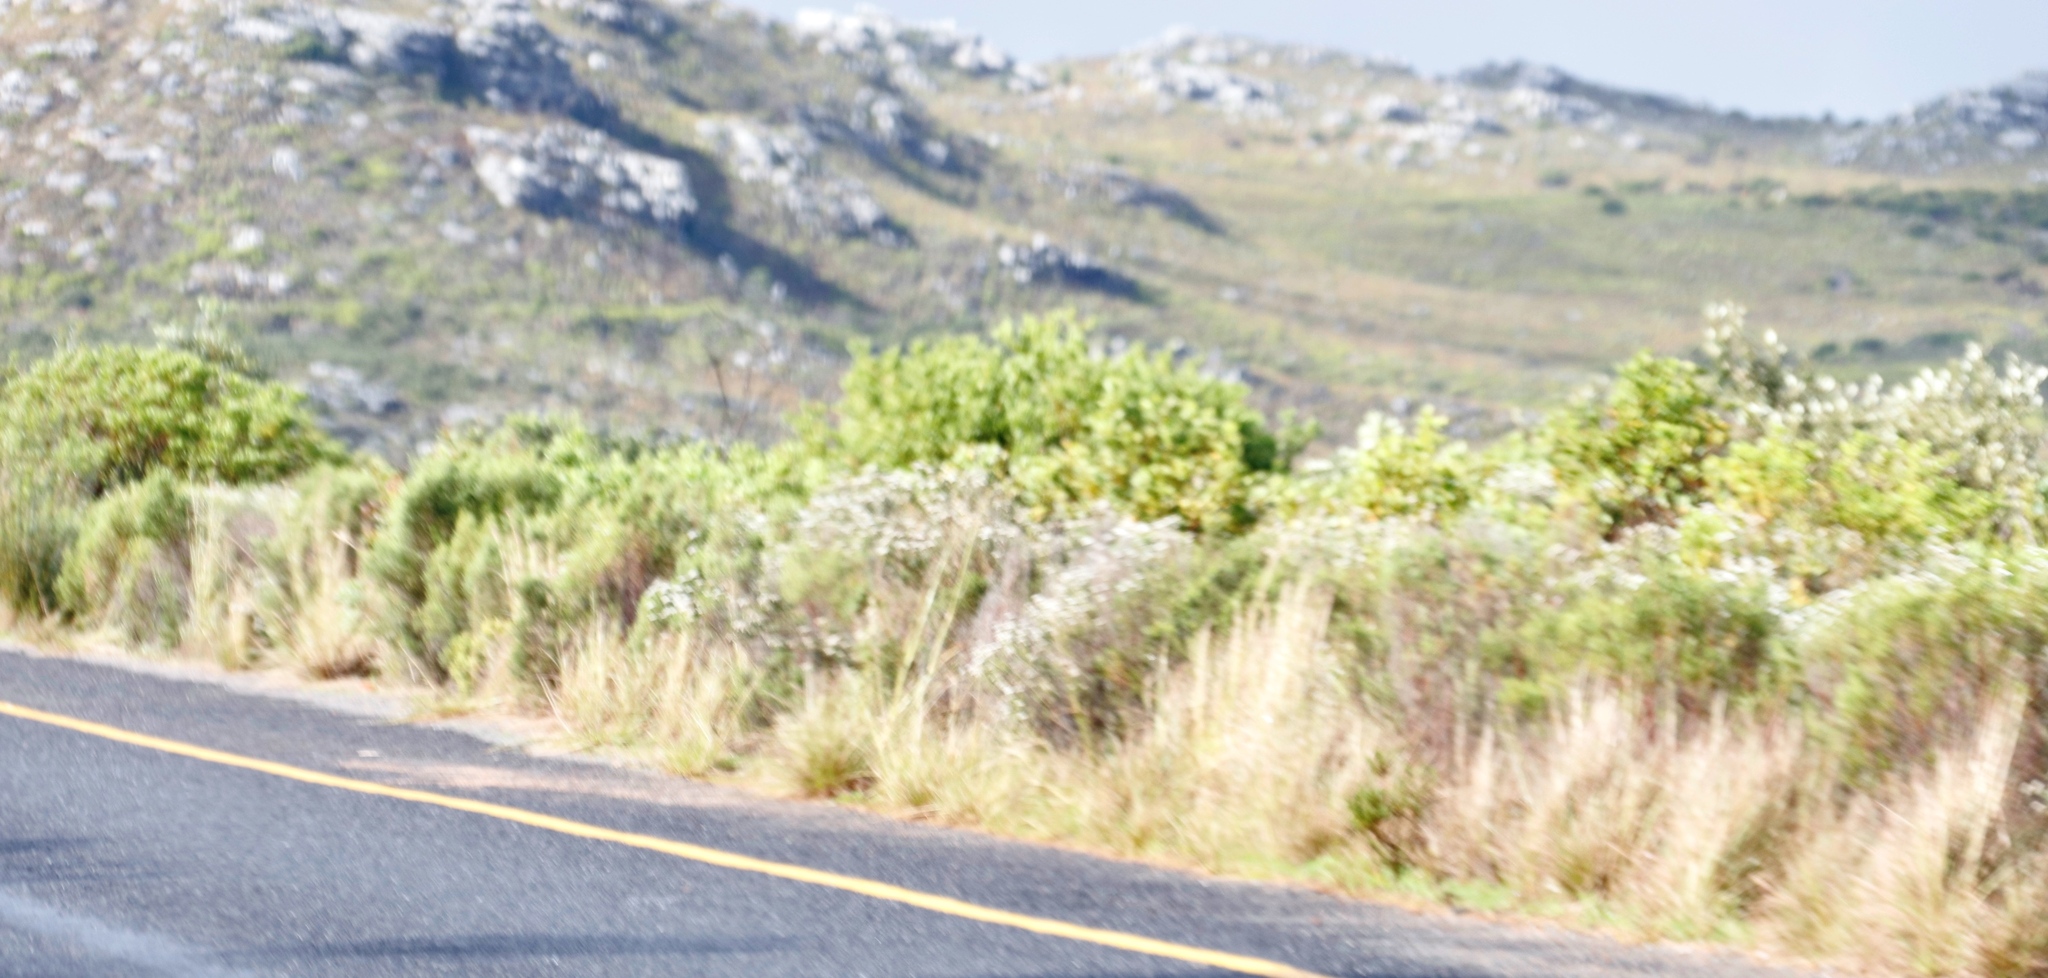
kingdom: Plantae
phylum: Tracheophyta
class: Liliopsida
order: Poales
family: Poaceae
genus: Hyparrhenia
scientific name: Hyparrhenia hirta
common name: Thatching grass
